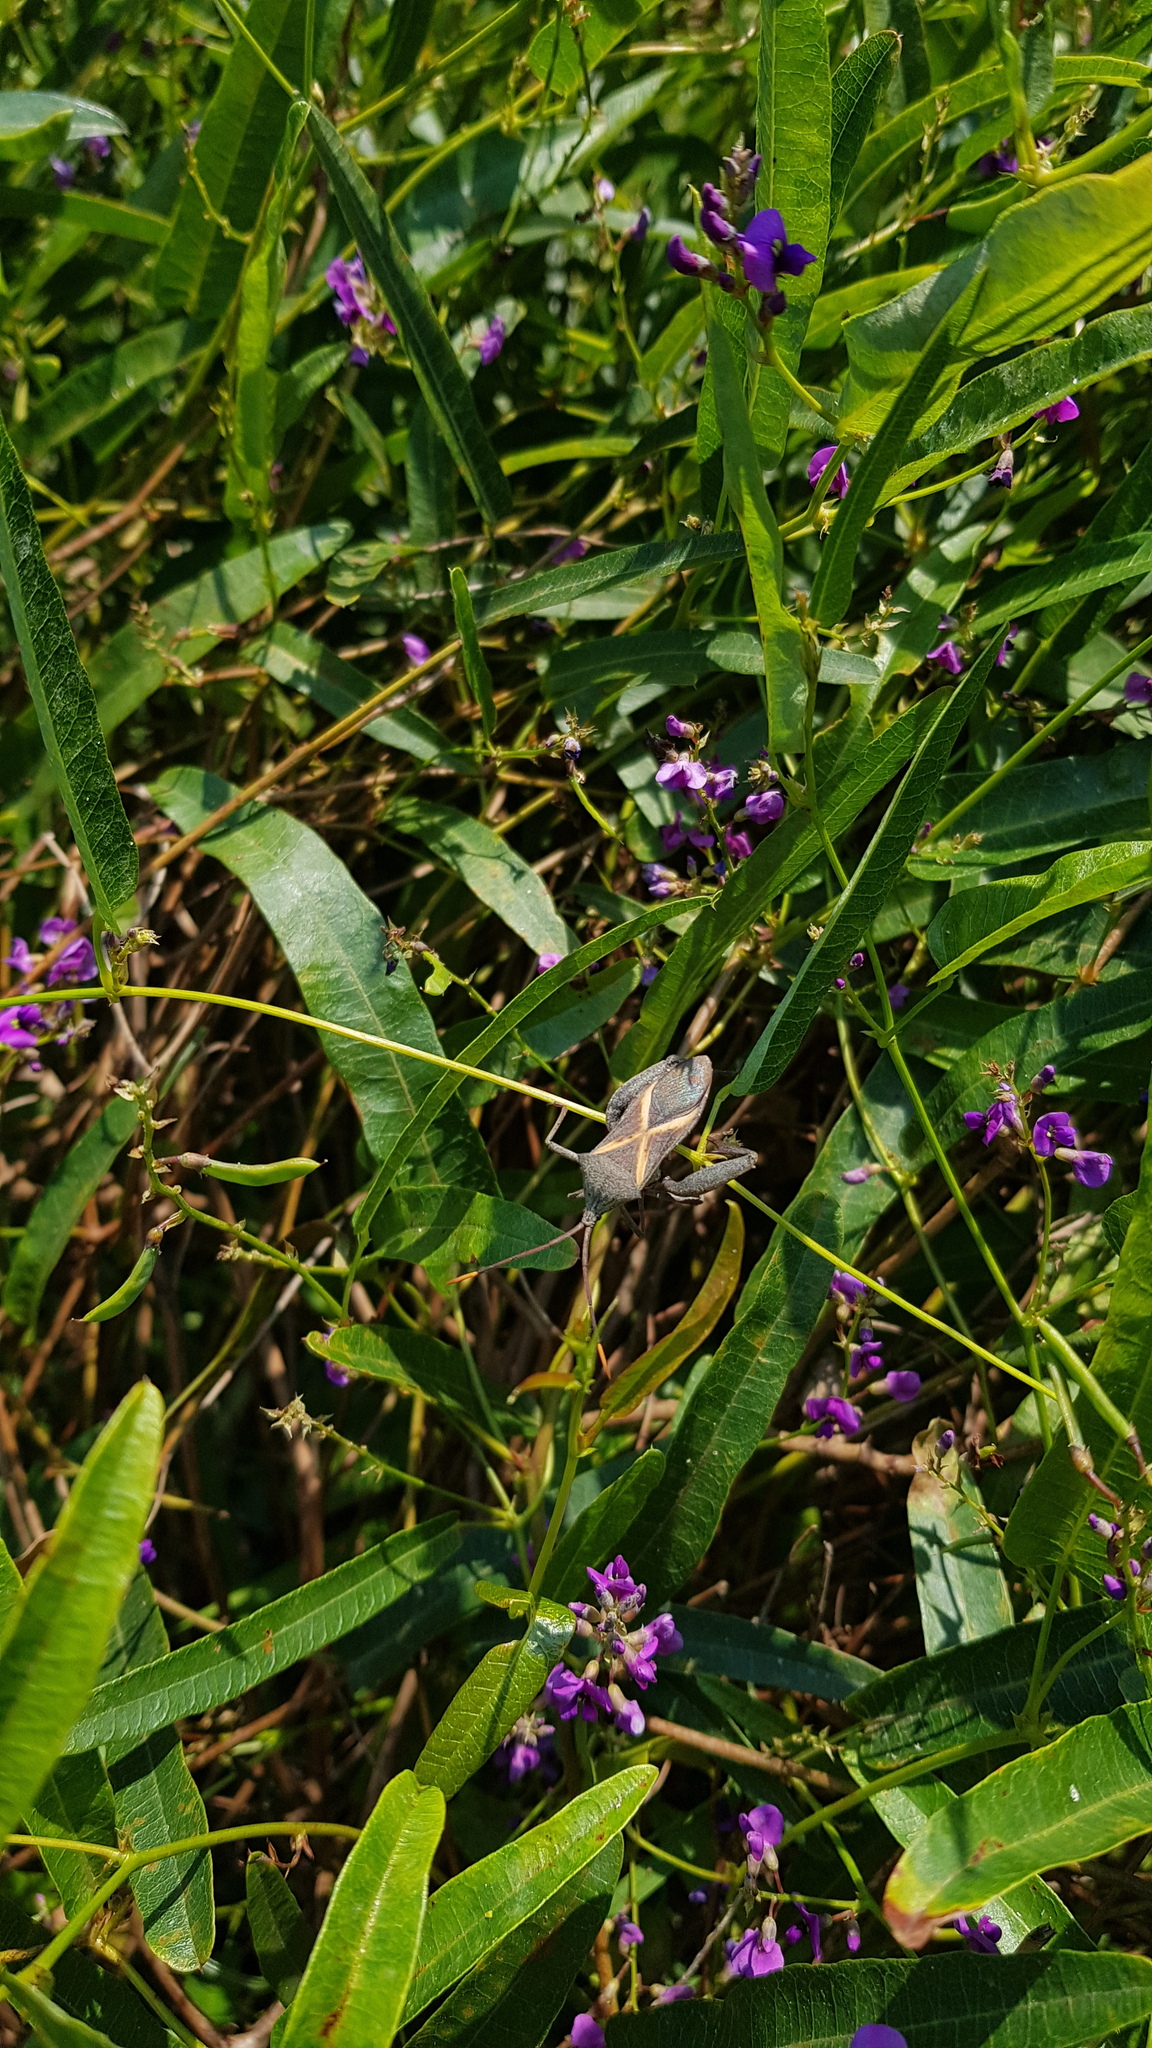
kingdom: Animalia
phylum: Arthropoda
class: Insecta
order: Hemiptera
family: Coreidae
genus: Mictis
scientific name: Mictis profana
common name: Crusader bug
